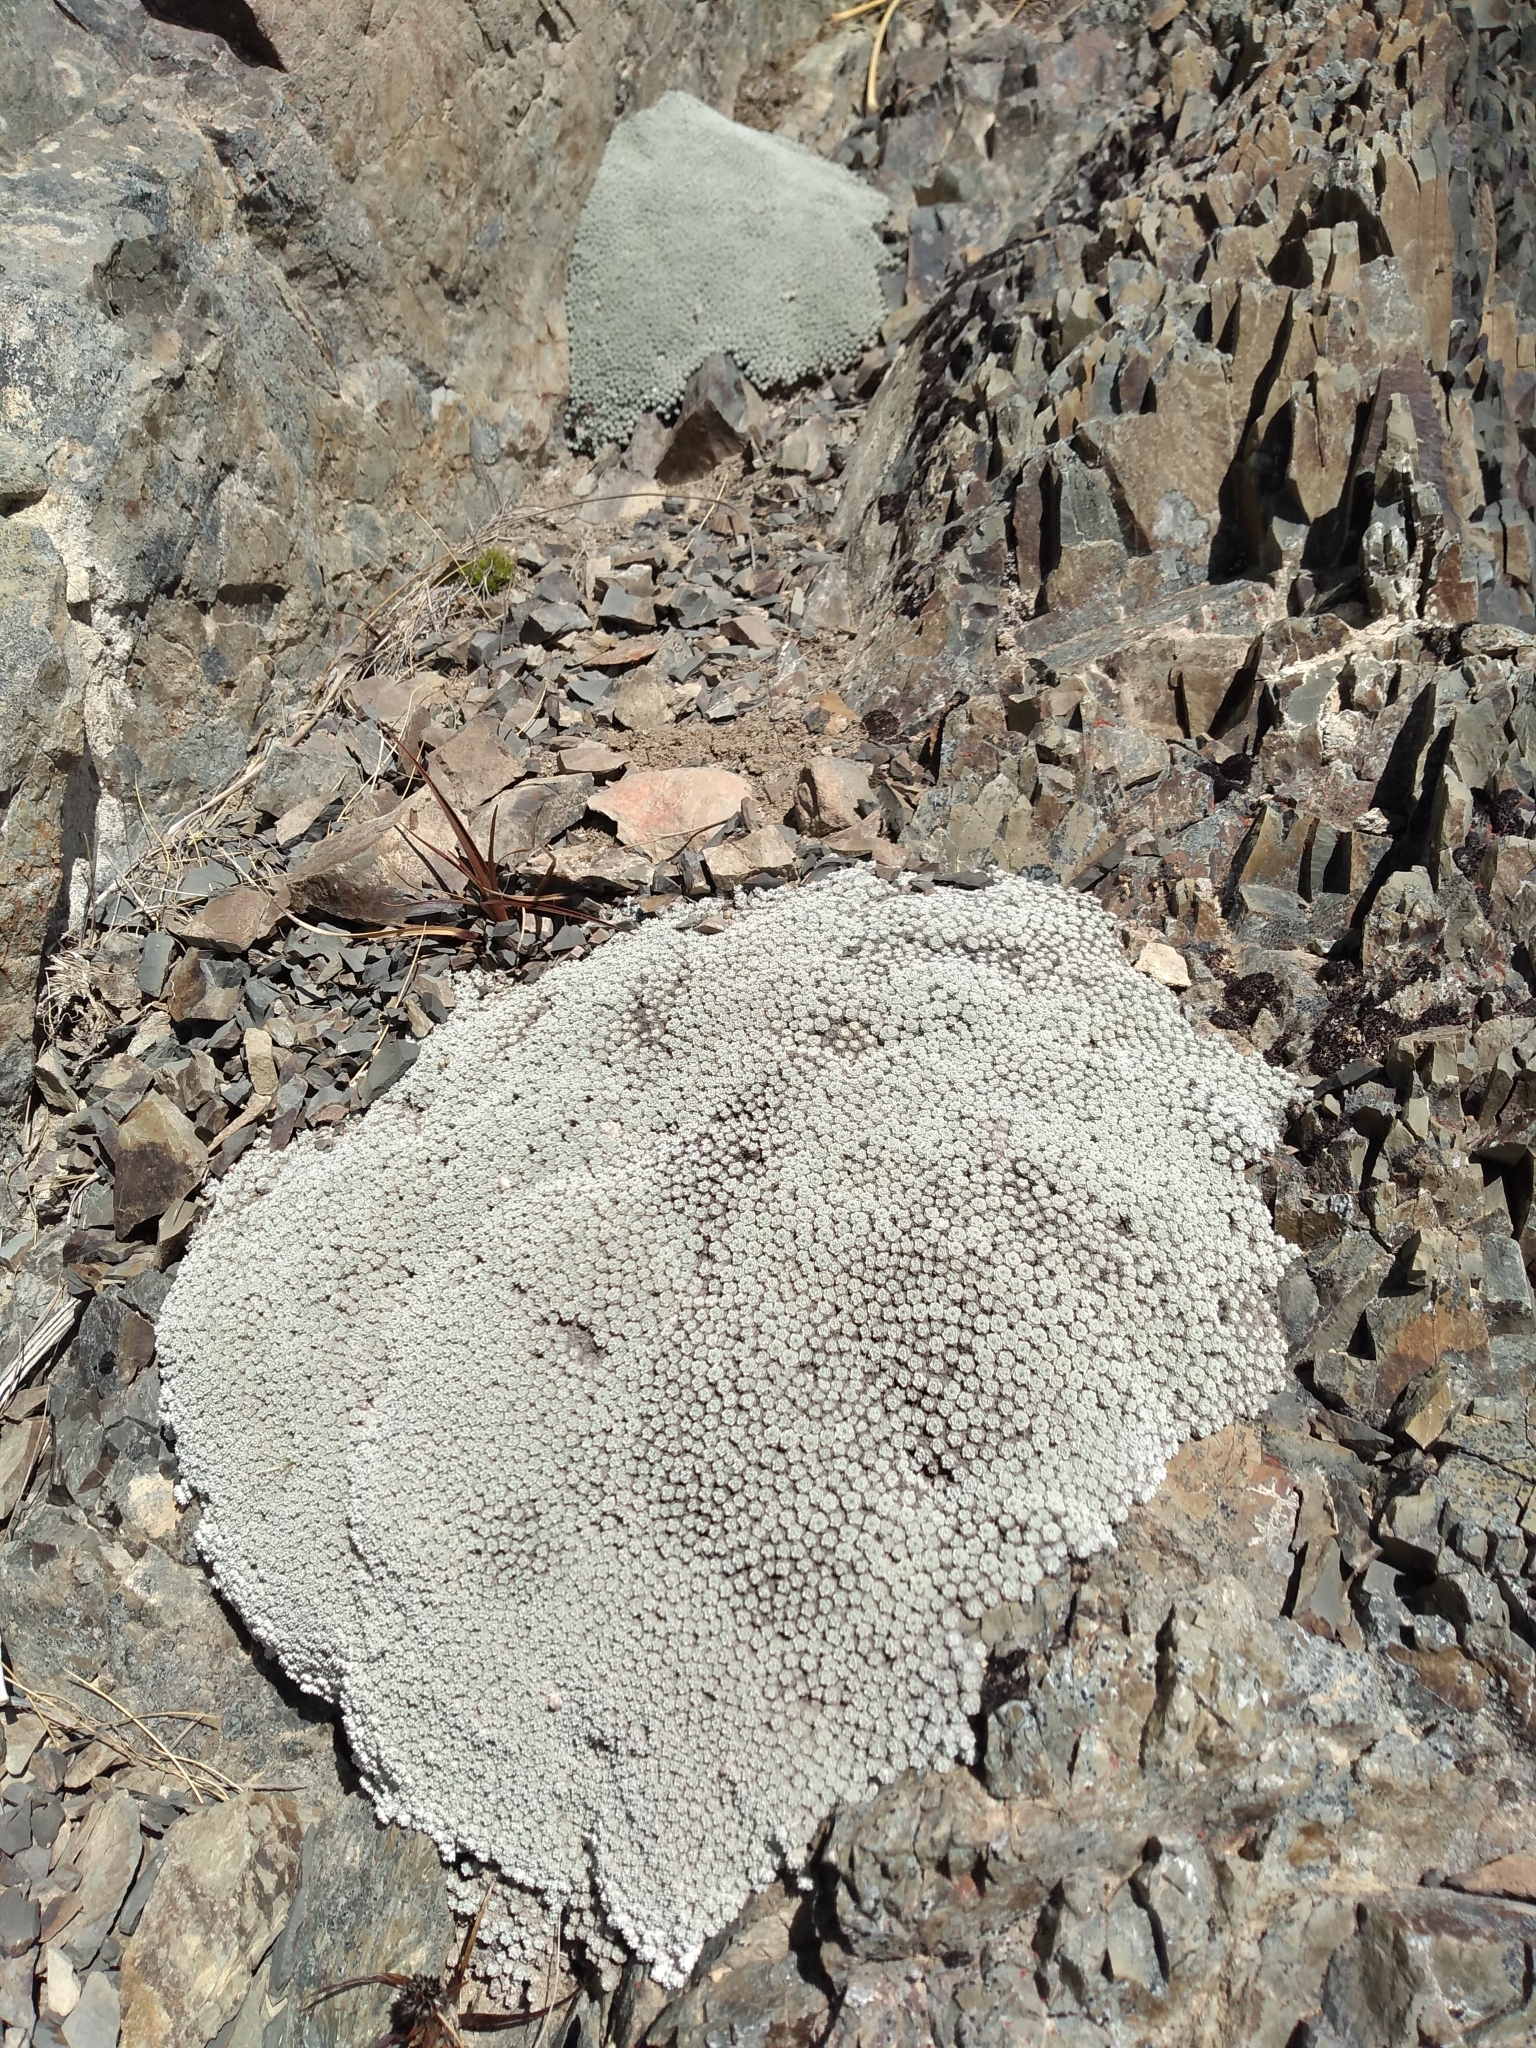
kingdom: Plantae
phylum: Tracheophyta
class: Magnoliopsida
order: Asterales
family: Asteraceae
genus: Raoulia
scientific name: Raoulia bryoides
